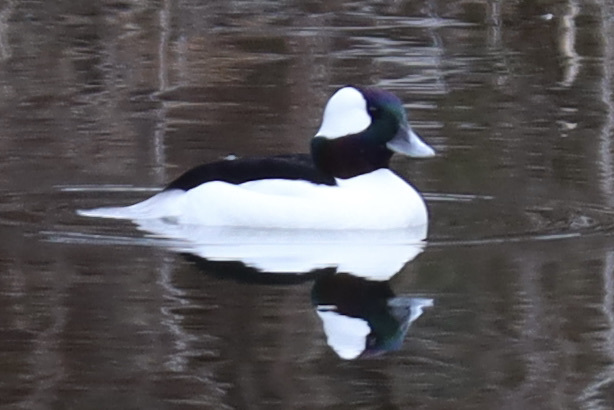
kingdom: Animalia
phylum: Chordata
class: Aves
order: Anseriformes
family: Anatidae
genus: Bucephala
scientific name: Bucephala albeola
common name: Bufflehead
